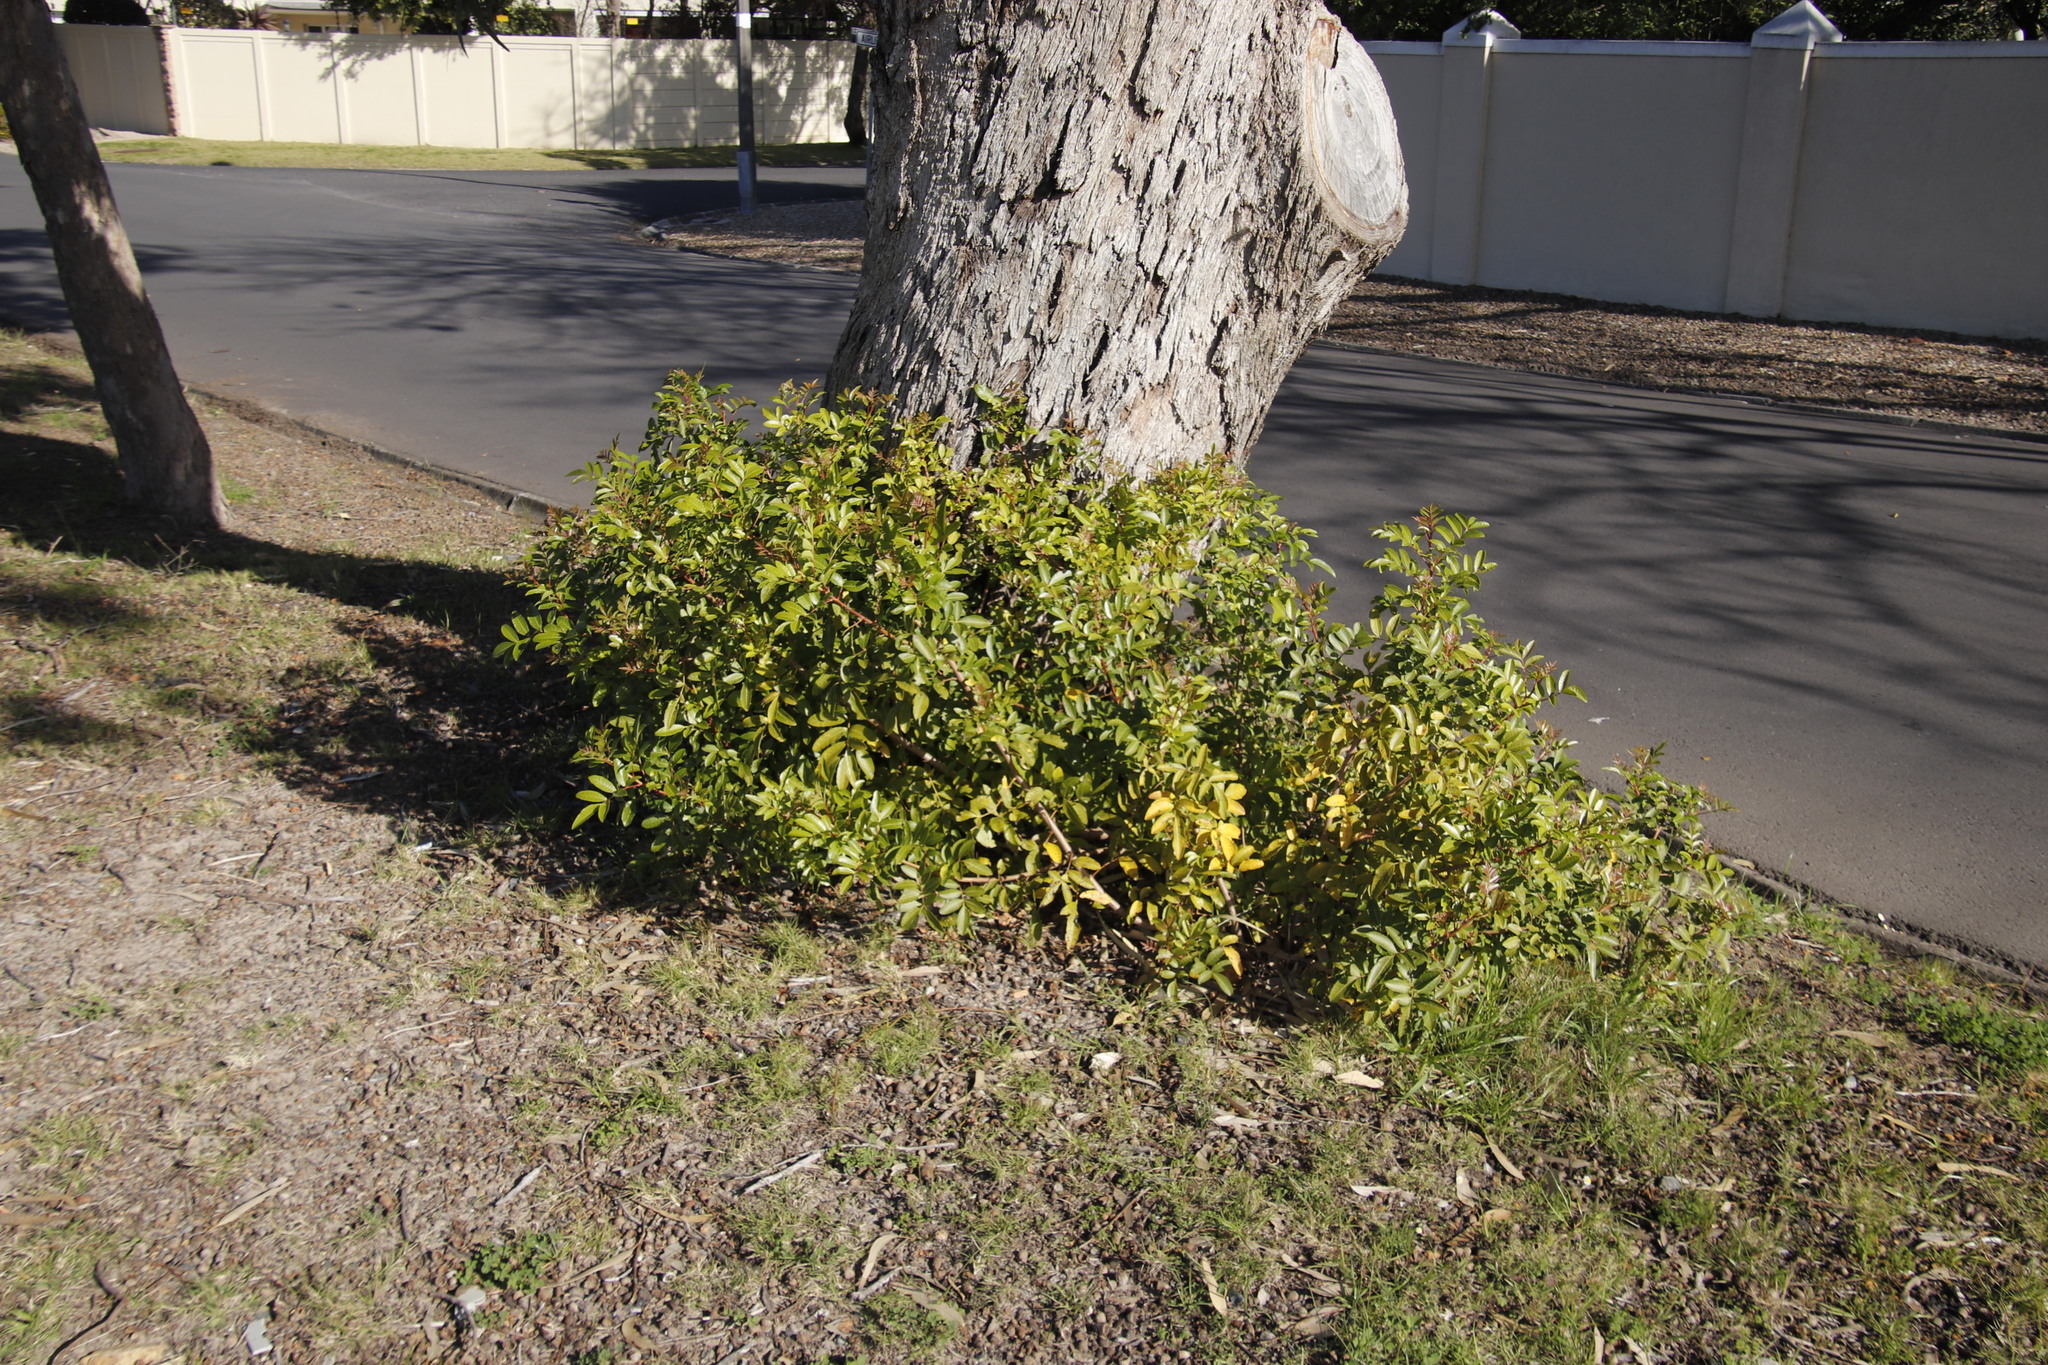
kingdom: Plantae
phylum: Tracheophyta
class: Magnoliopsida
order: Sapindales
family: Anacardiaceae
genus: Schinus
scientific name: Schinus terebinthifolia
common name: Brazilian peppertree
